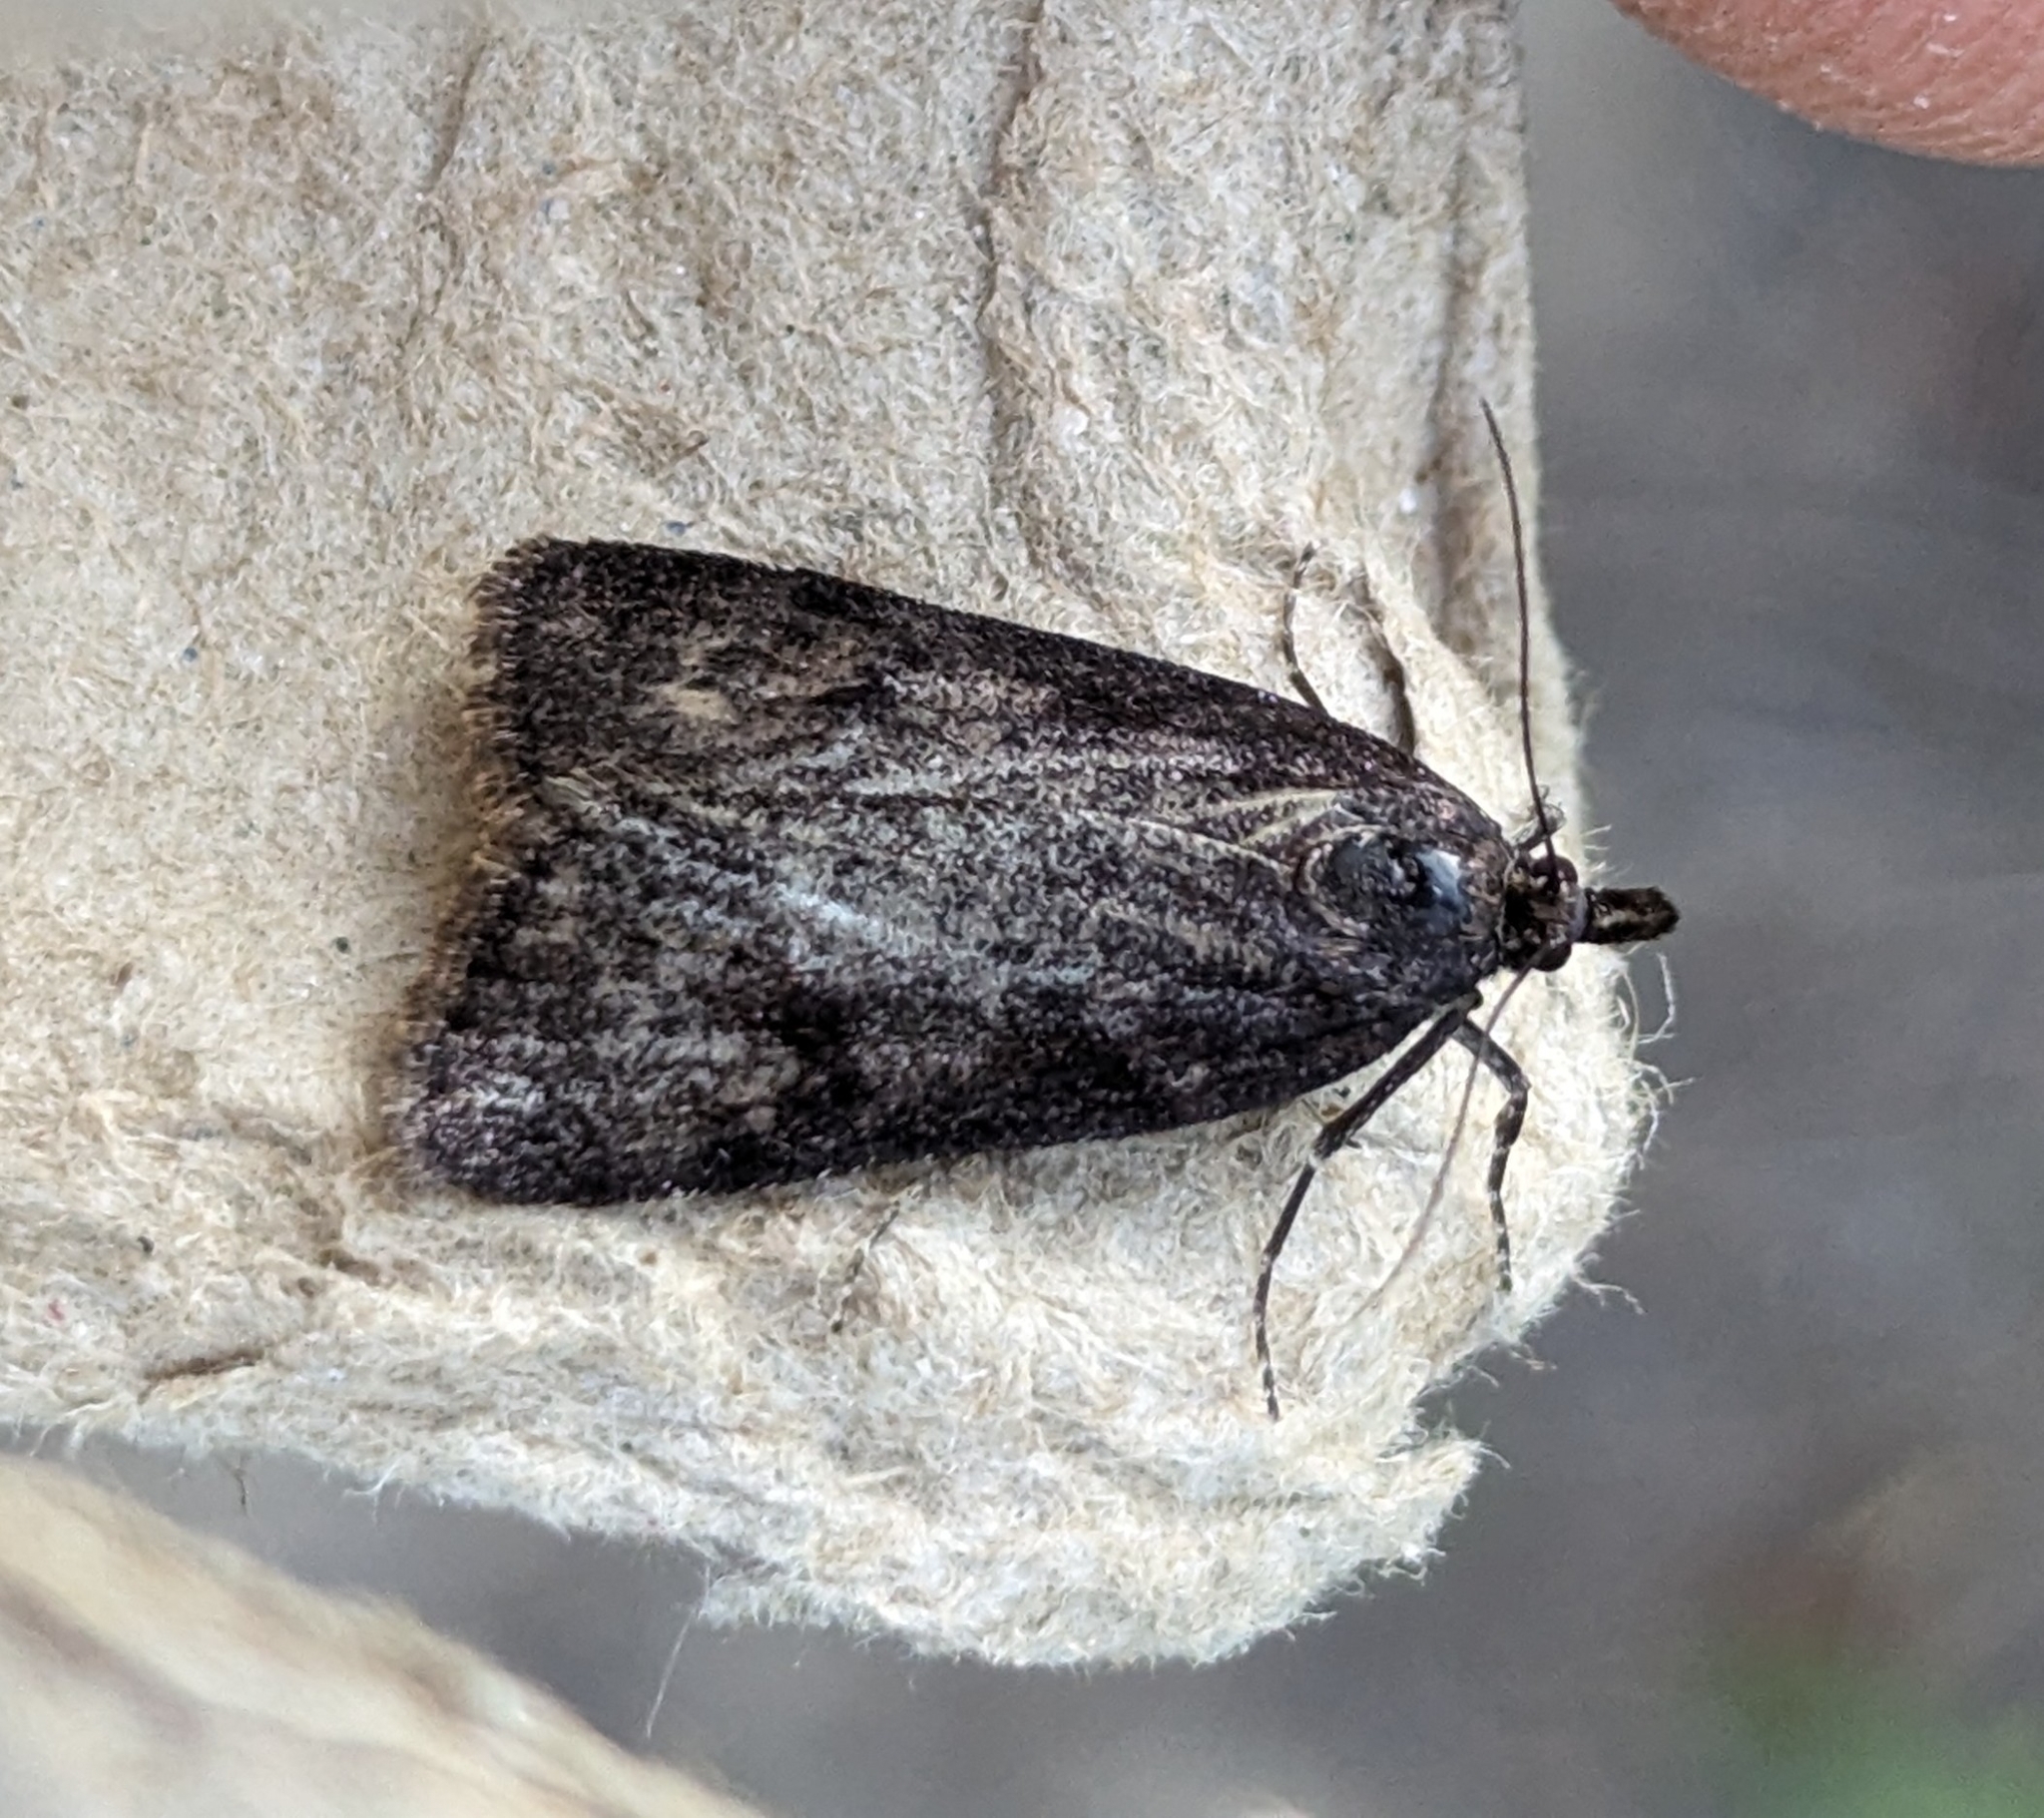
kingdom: Animalia
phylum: Arthropoda
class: Insecta
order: Lepidoptera
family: Crambidae
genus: Gesneria
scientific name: Gesneria centuriella
